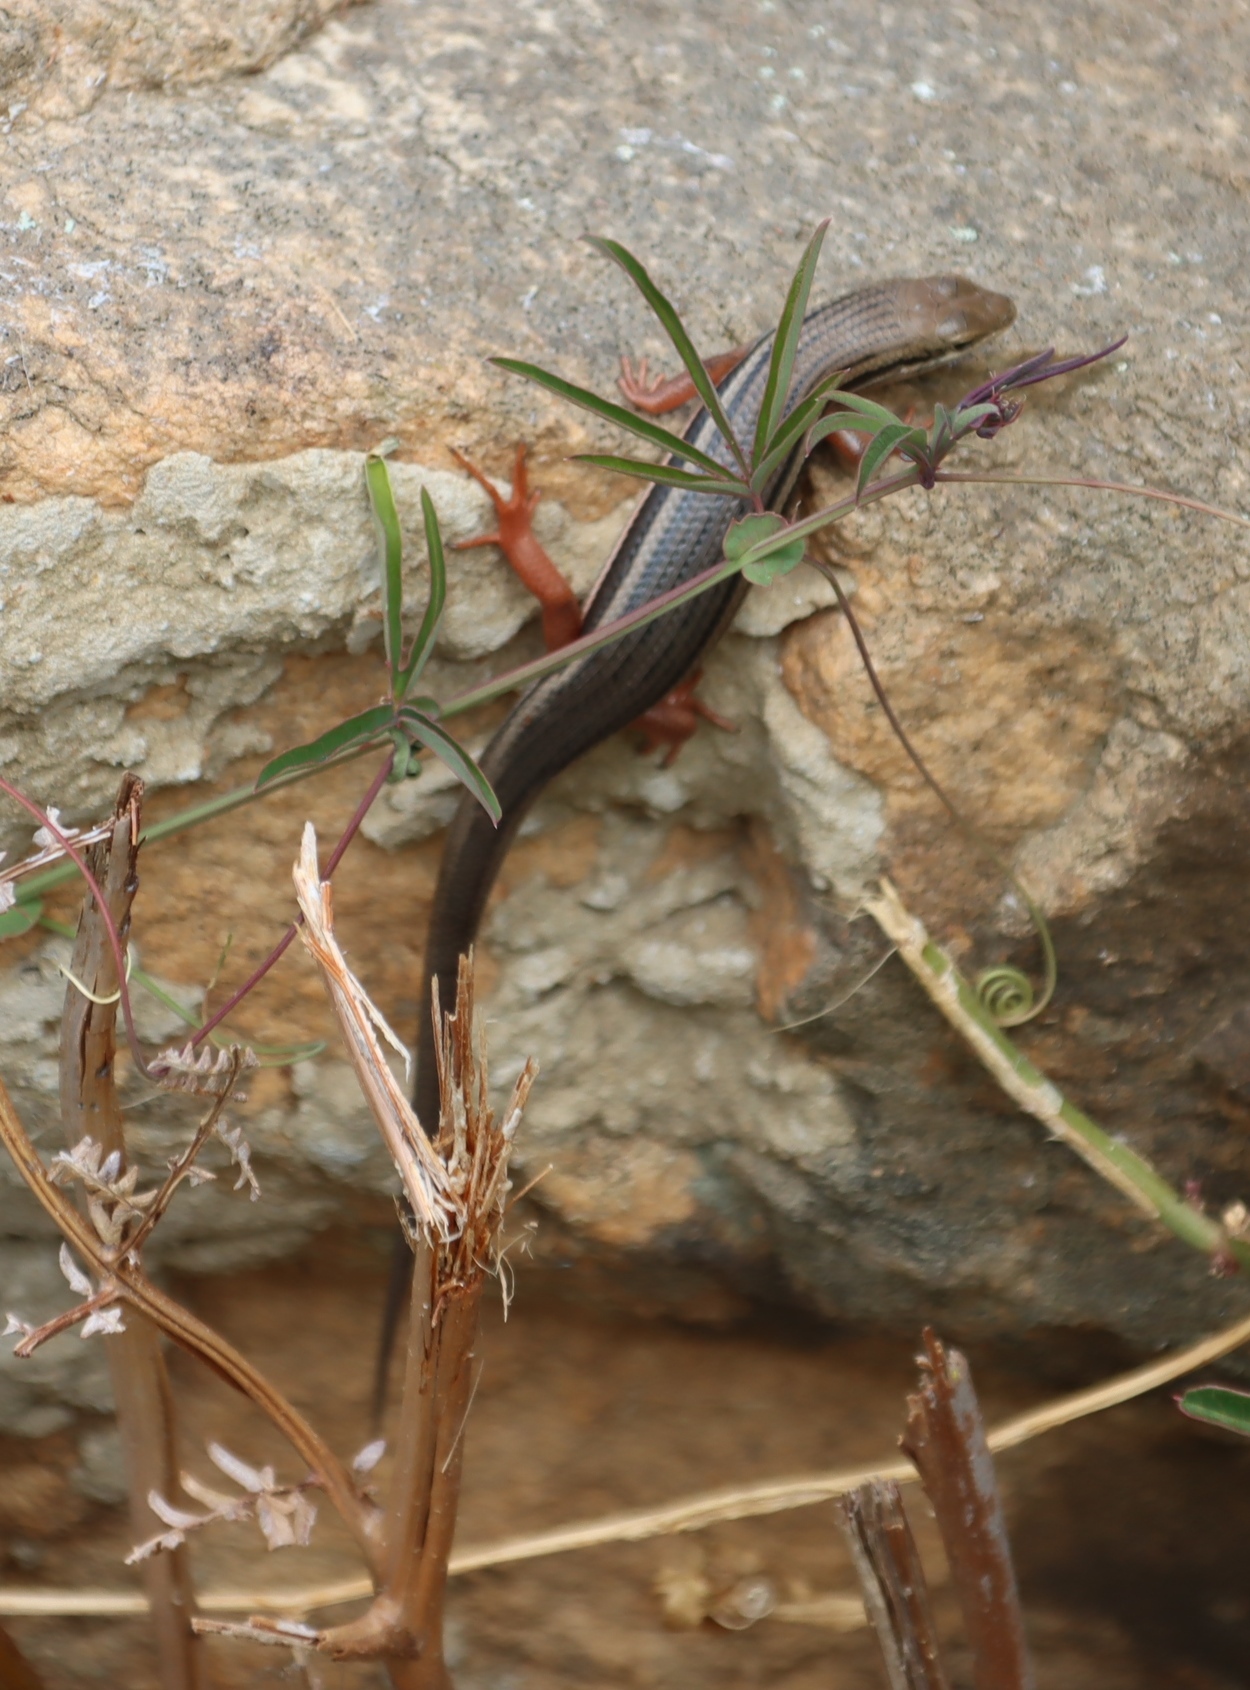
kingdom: Animalia
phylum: Chordata
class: Squamata
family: Scincidae
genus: Trachylepis
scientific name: Trachylepis homalocephala
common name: Red-sided skink
